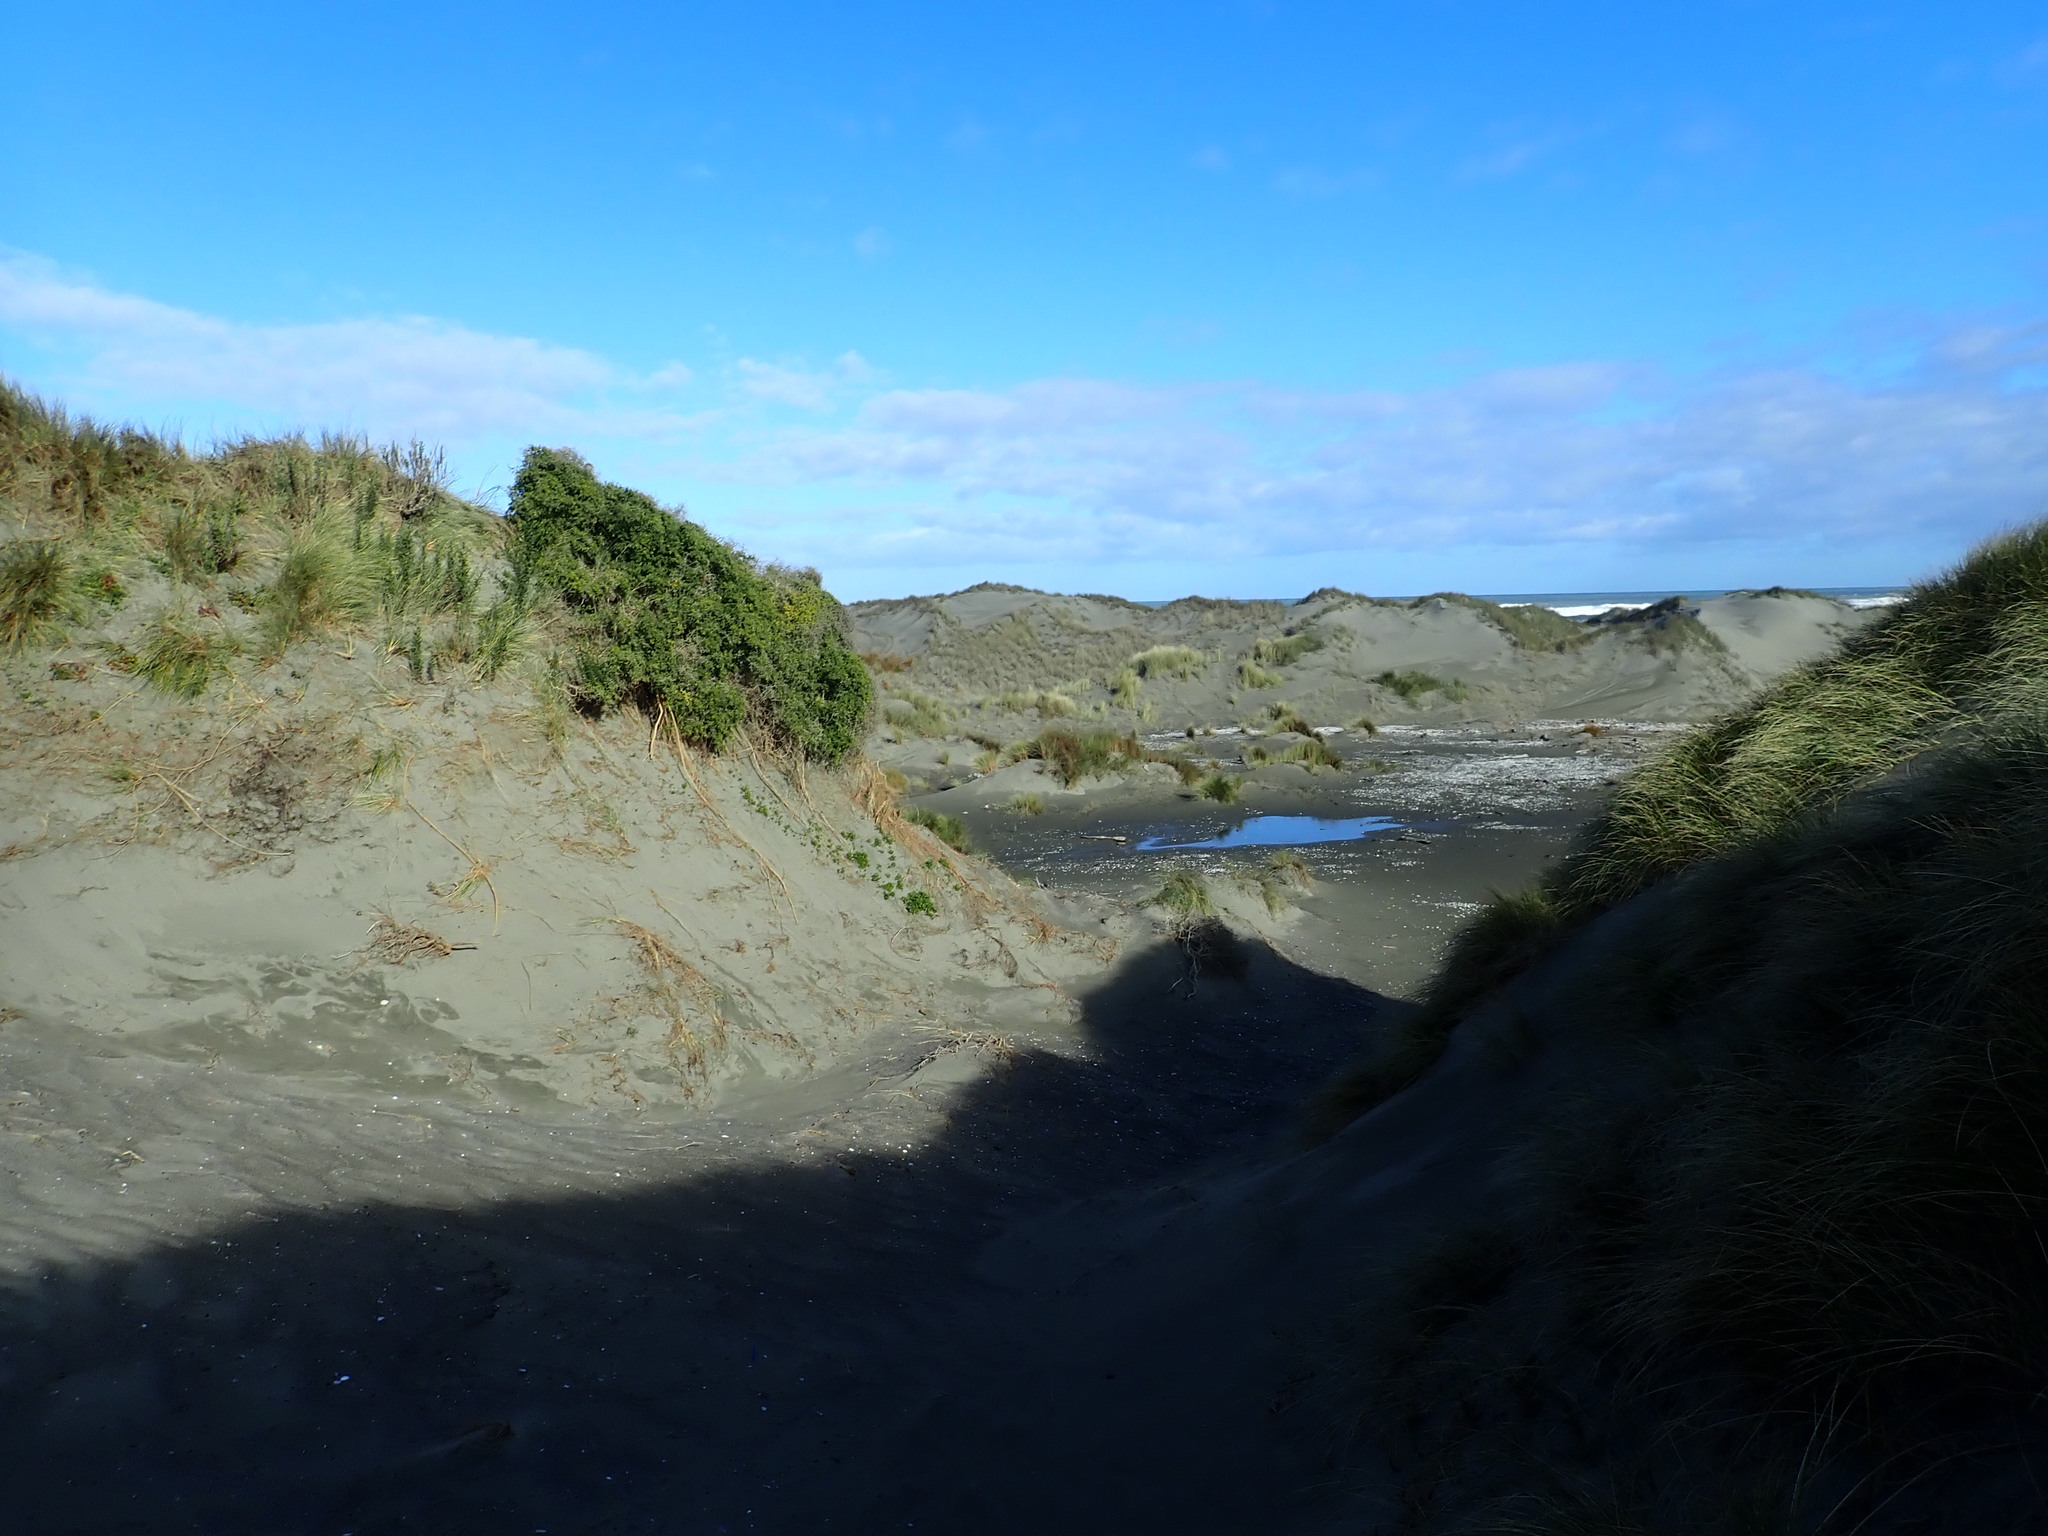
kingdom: Plantae
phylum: Tracheophyta
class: Magnoliopsida
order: Solanales
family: Solanaceae
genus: Lycium
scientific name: Lycium ferocissimum
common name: African boxthorn
